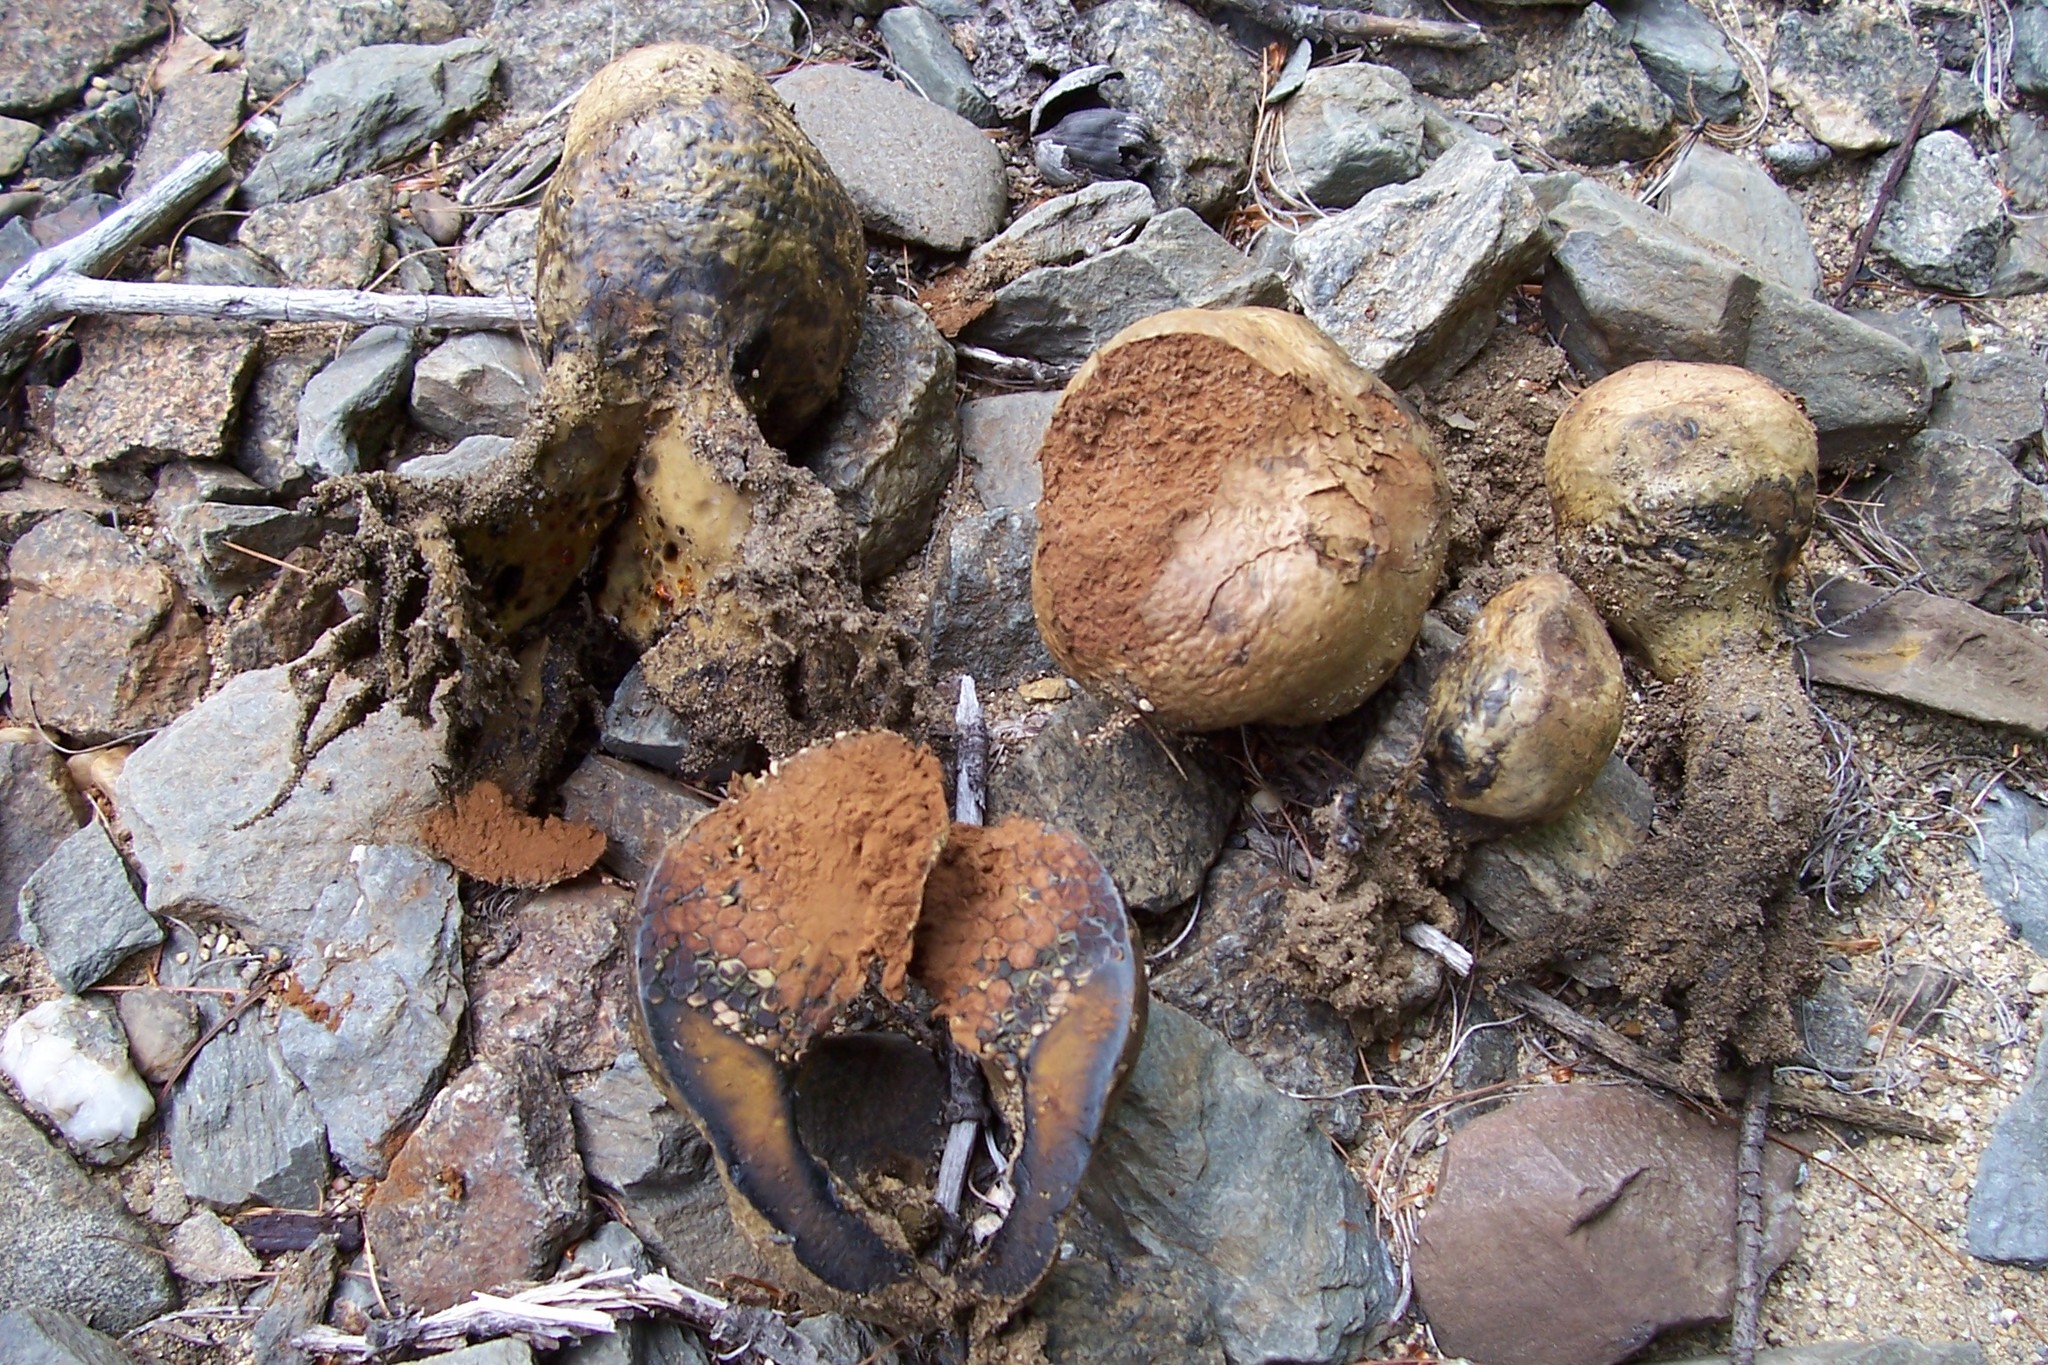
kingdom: Fungi
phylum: Basidiomycota
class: Agaricomycetes
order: Boletales
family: Sclerodermataceae
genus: Pisolithus
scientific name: Pisolithus arhizus
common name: Dyeball
